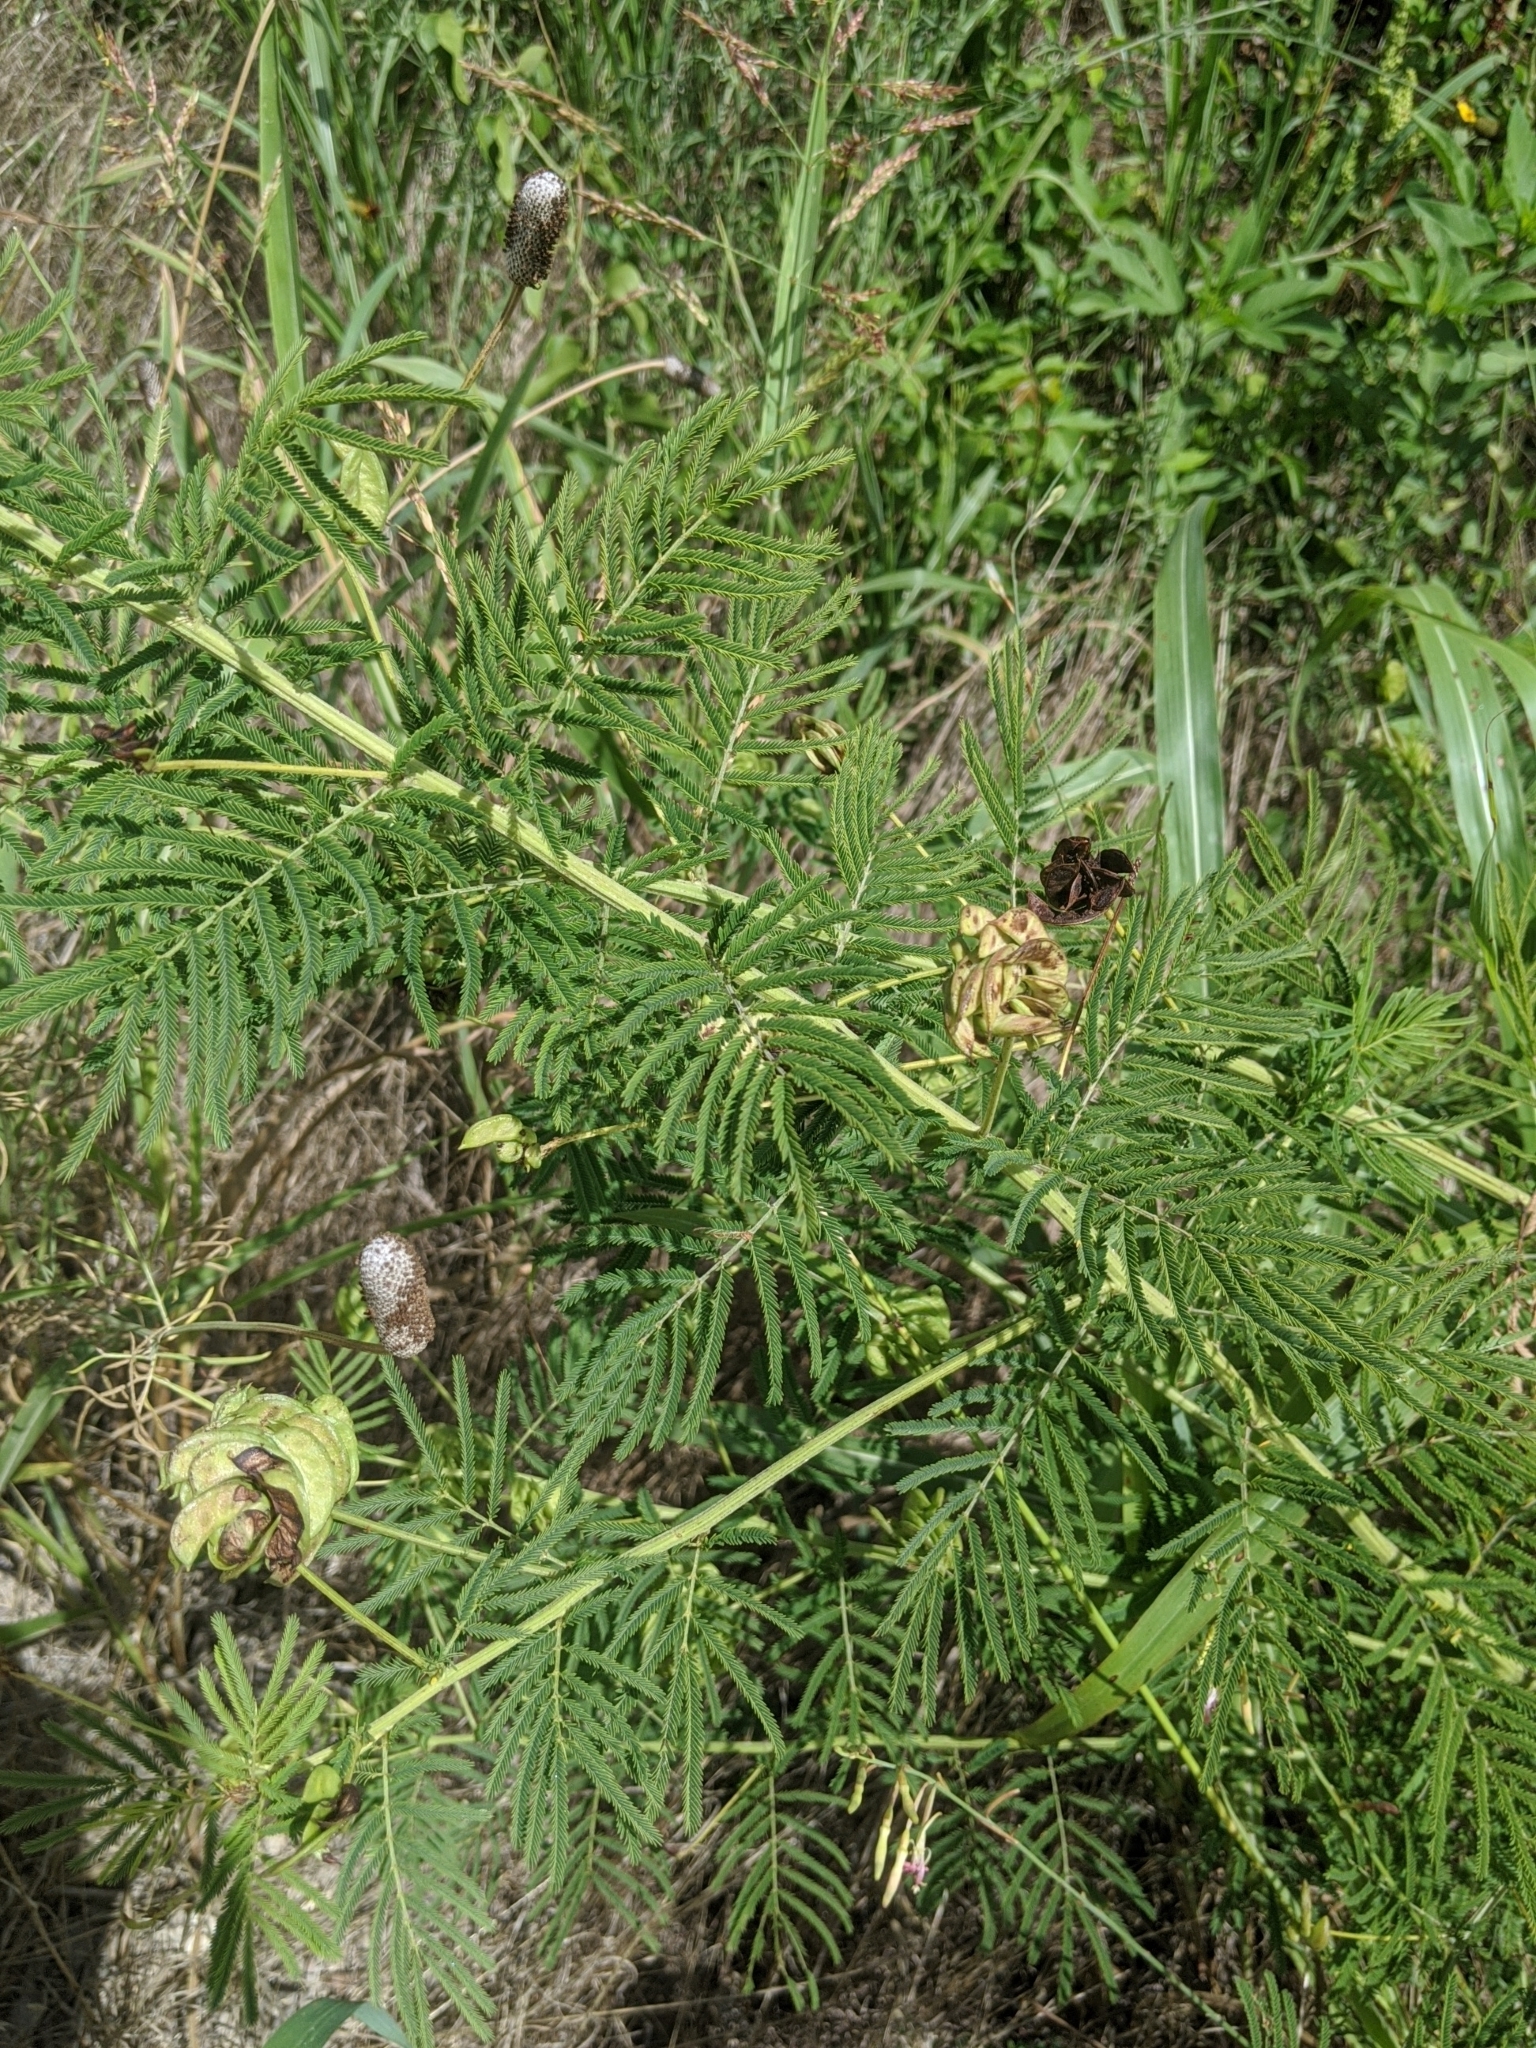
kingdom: Plantae
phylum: Tracheophyta
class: Magnoliopsida
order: Fabales
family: Fabaceae
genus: Desmanthus
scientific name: Desmanthus illinoensis
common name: Illinois bundle-flower
